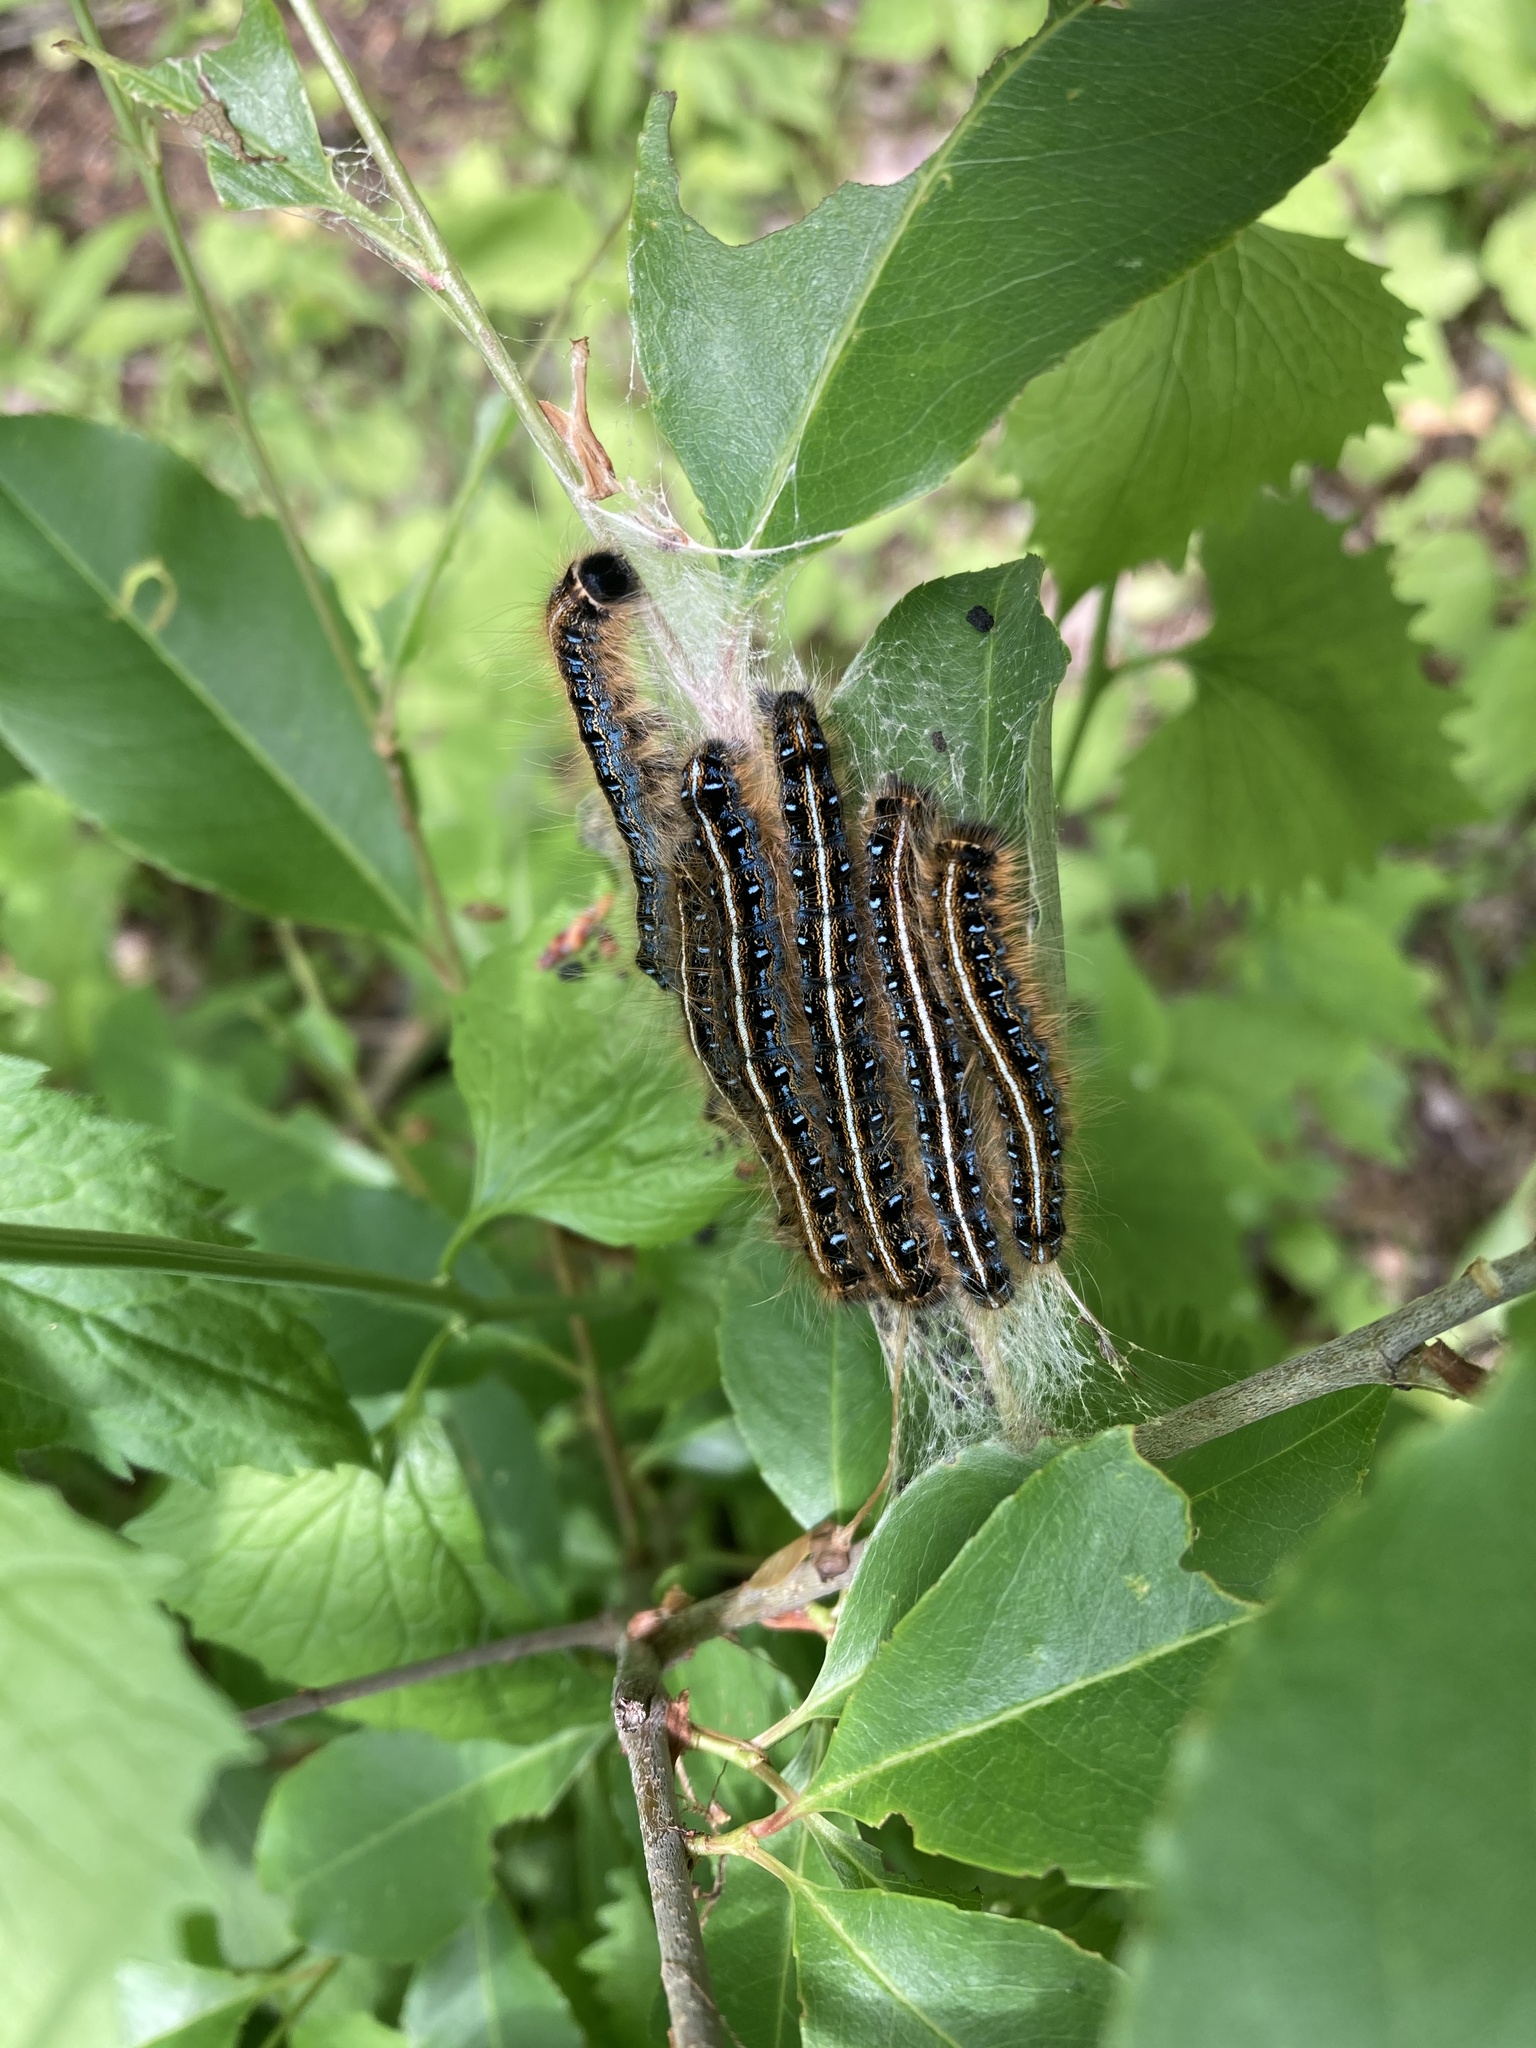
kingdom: Animalia
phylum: Arthropoda
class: Insecta
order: Lepidoptera
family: Lasiocampidae
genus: Malacosoma
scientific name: Malacosoma americana
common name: Eastern tent caterpillar moth
